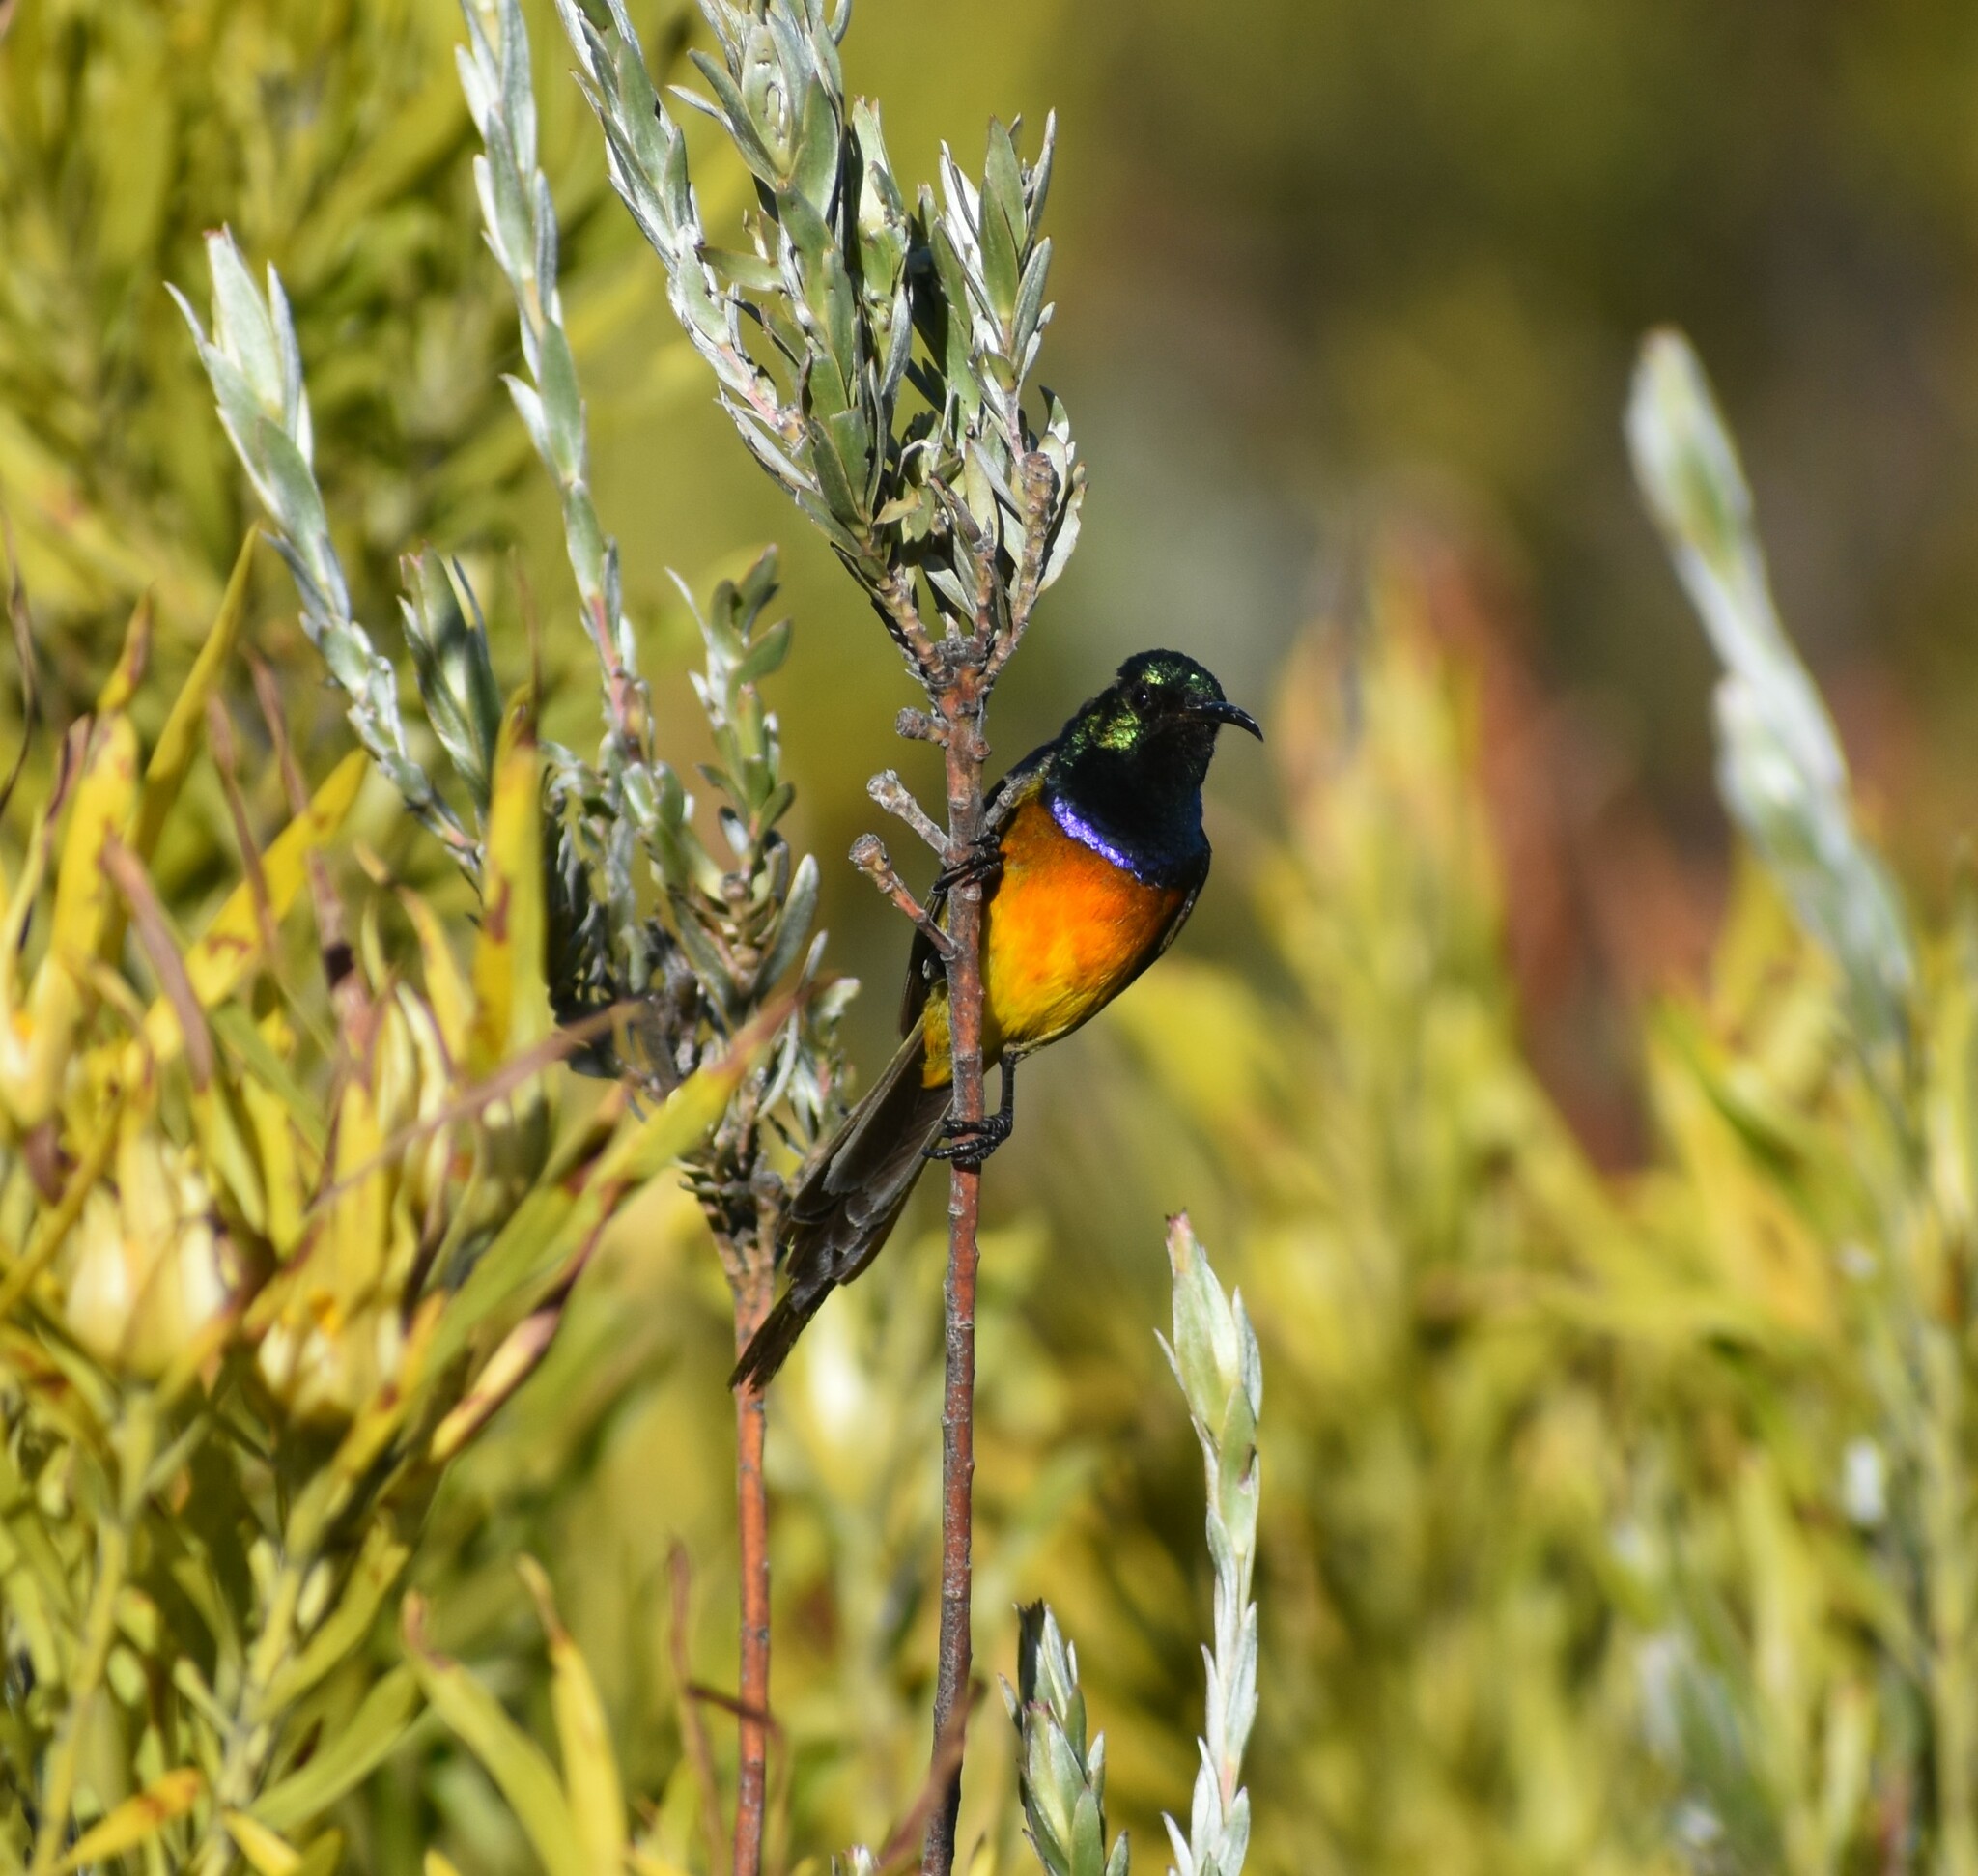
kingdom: Animalia
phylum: Chordata
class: Aves
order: Passeriformes
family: Nectariniidae
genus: Anthobaphes
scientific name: Anthobaphes violacea
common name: Orange-breasted sunbird
